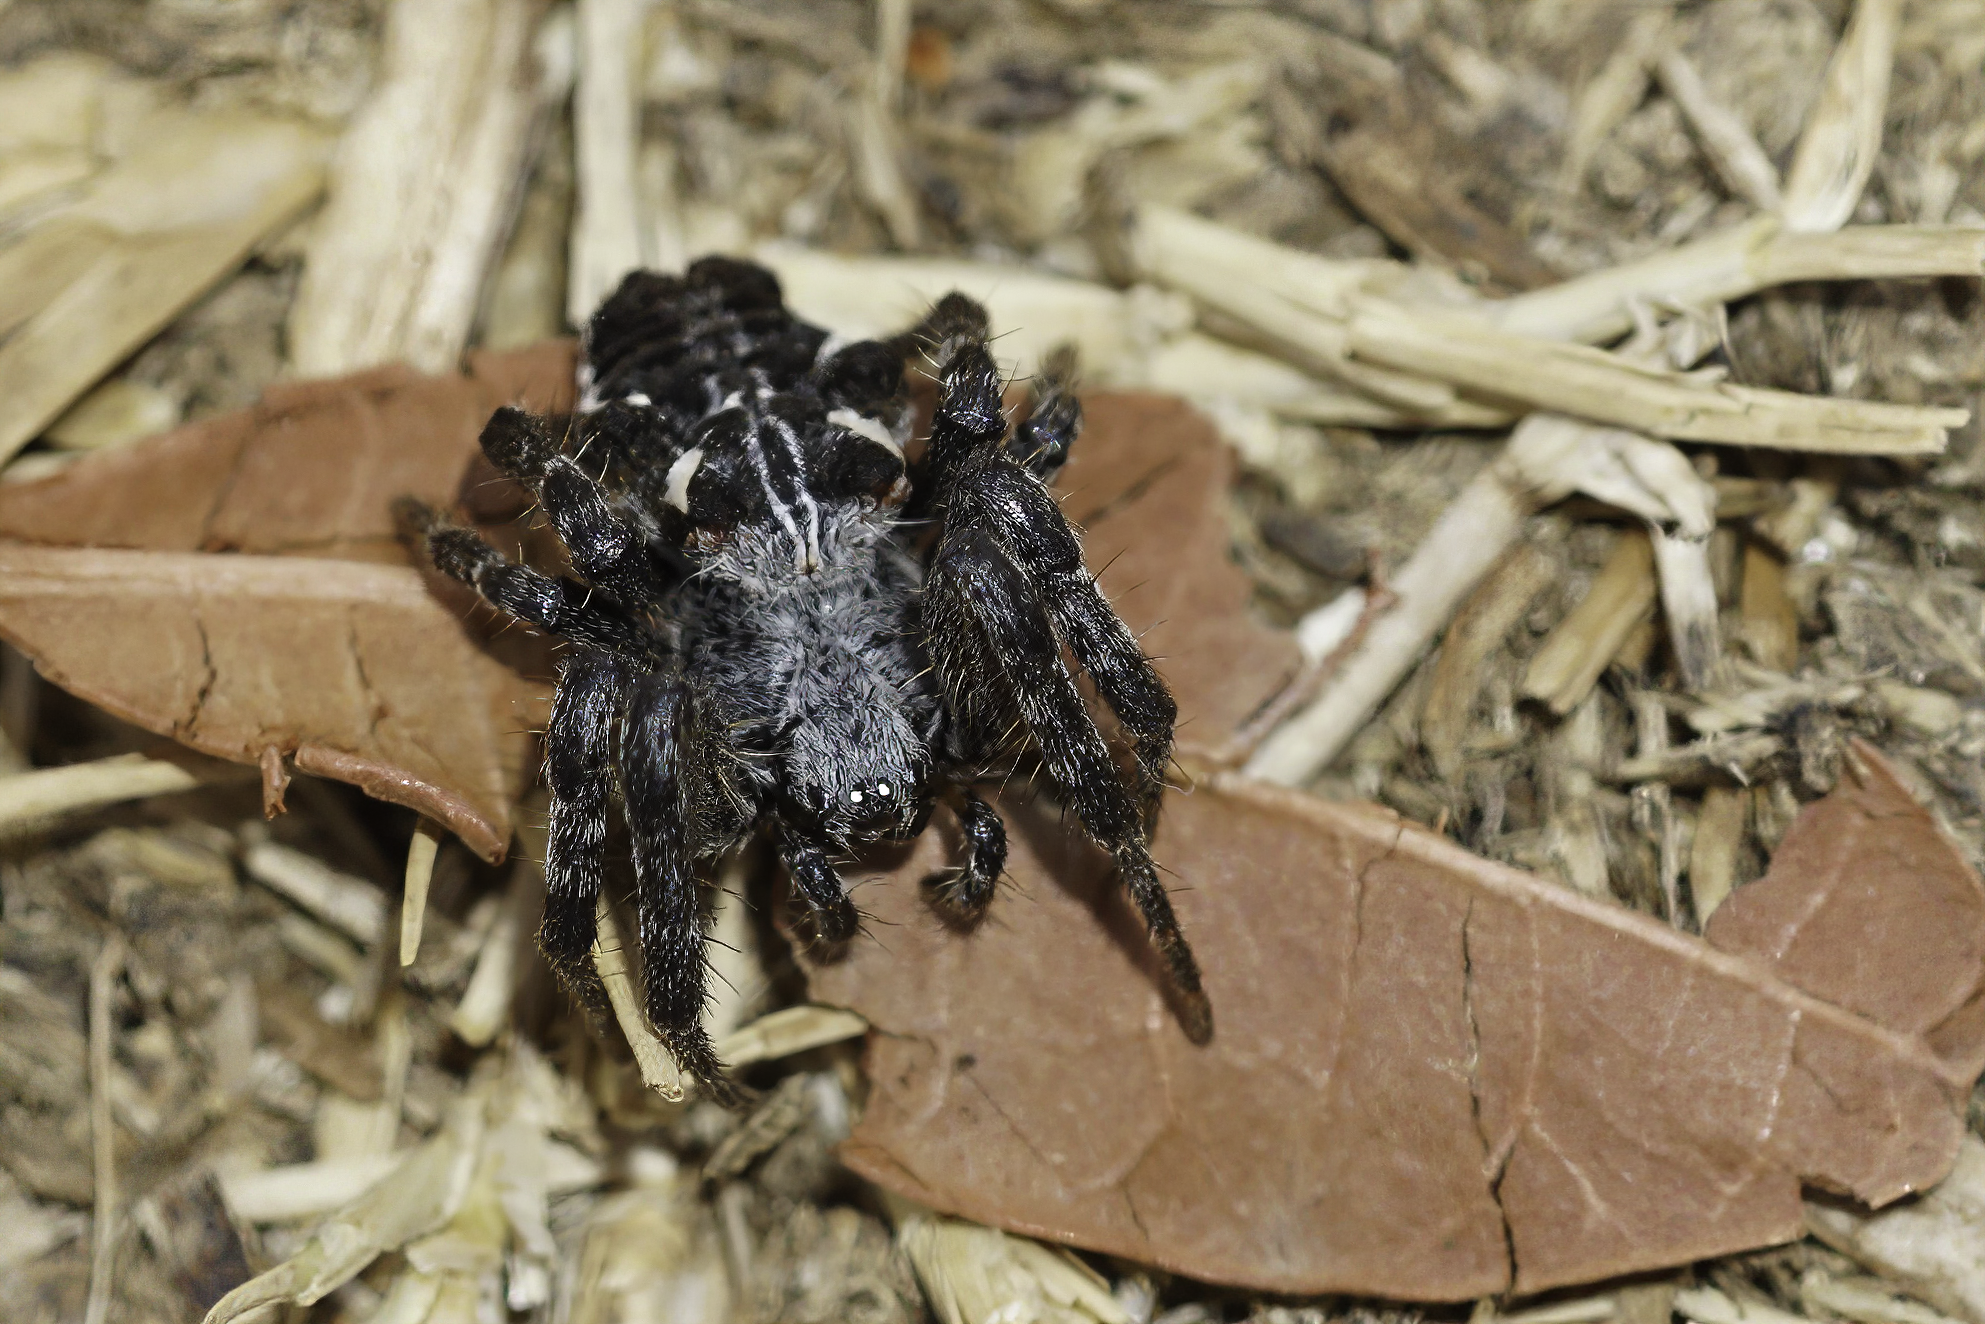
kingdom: Animalia
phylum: Arthropoda
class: Arachnida
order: Araneae
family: Araneidae
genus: Cyrtophora
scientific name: Cyrtophora citricola
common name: Orb weavers
